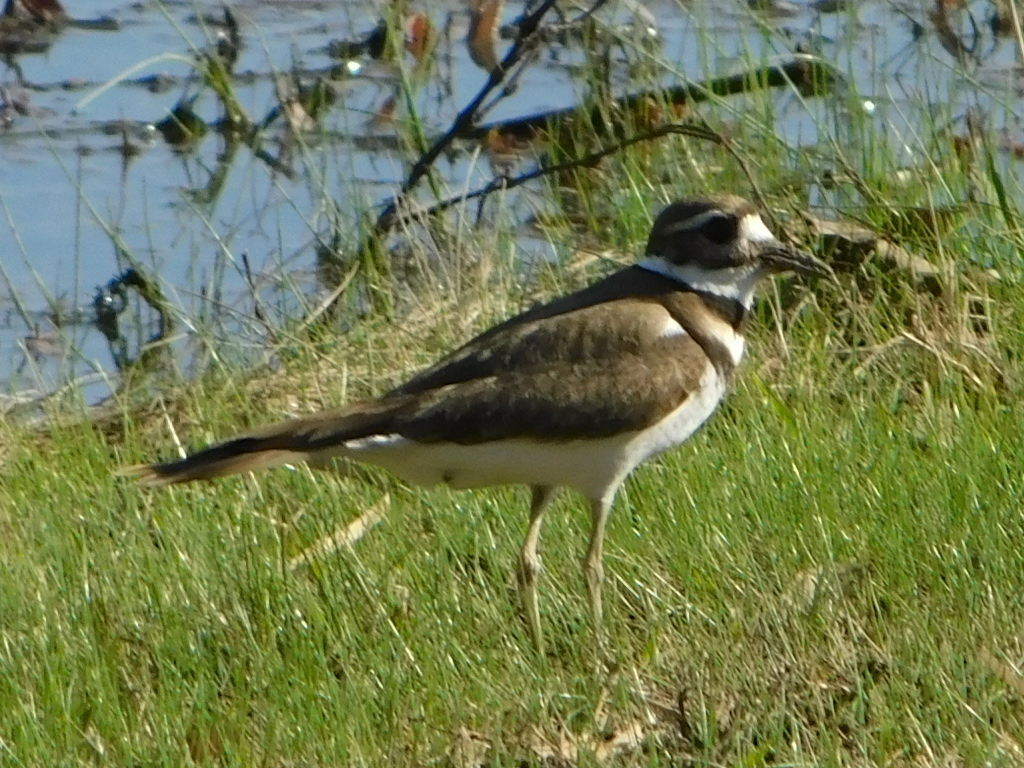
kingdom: Animalia
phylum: Chordata
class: Aves
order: Charadriiformes
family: Charadriidae
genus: Charadrius
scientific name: Charadrius vociferus
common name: Killdeer
